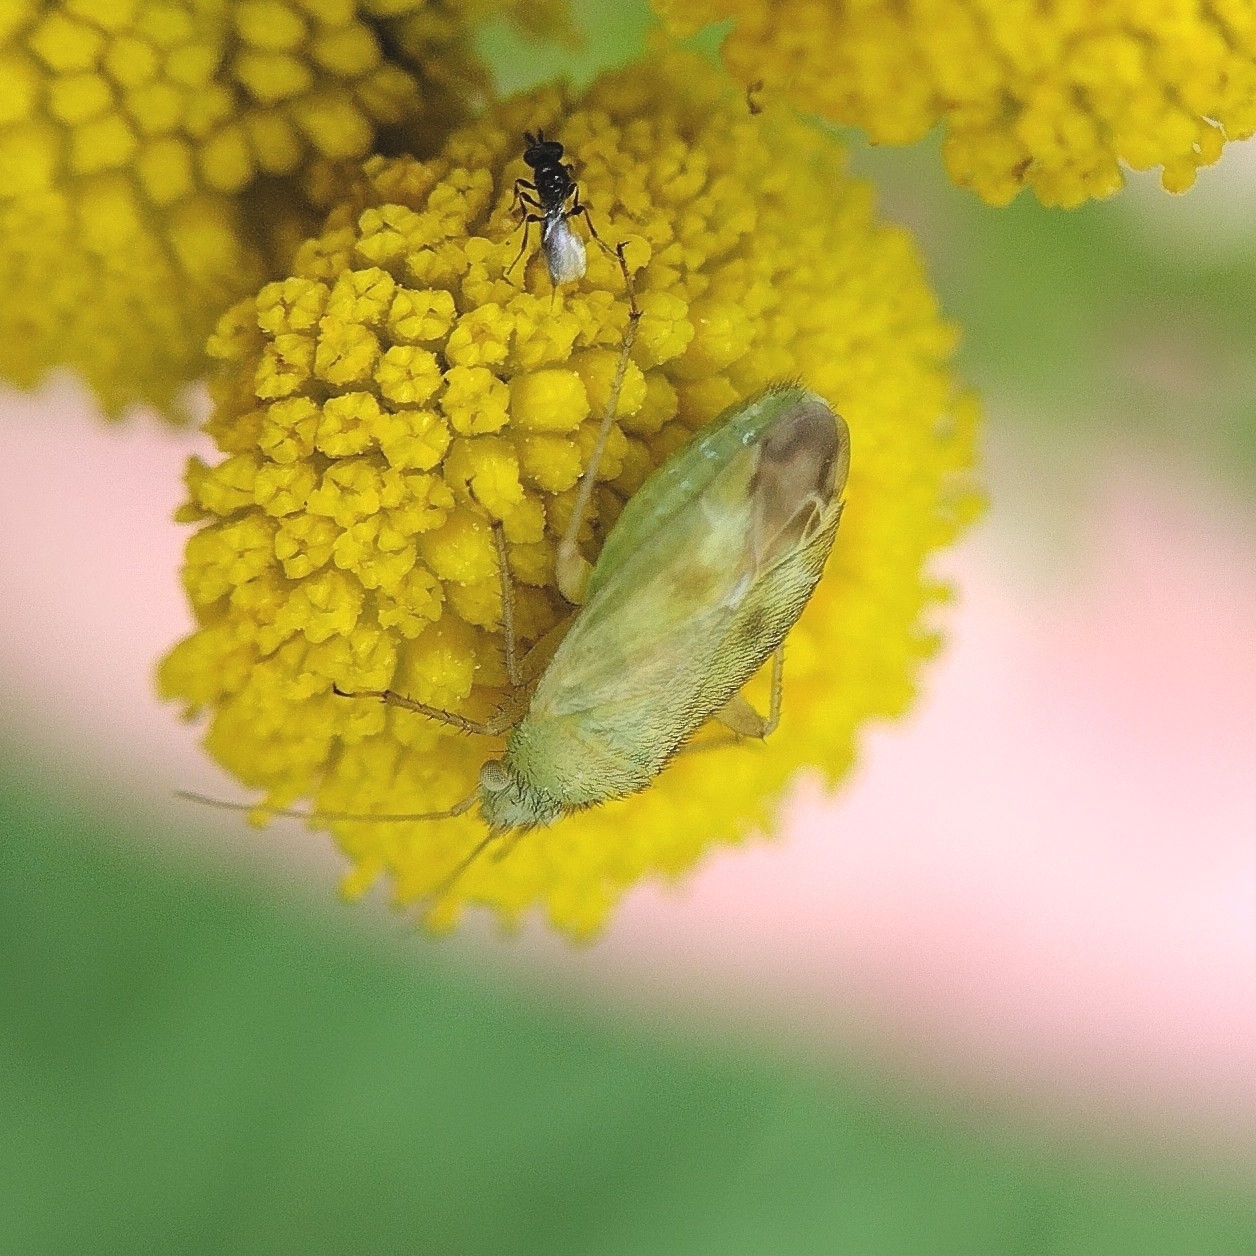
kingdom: Animalia
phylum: Arthropoda
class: Insecta
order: Hemiptera
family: Miridae
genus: Megalocoleus
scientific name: Megalocoleus tanaceti
